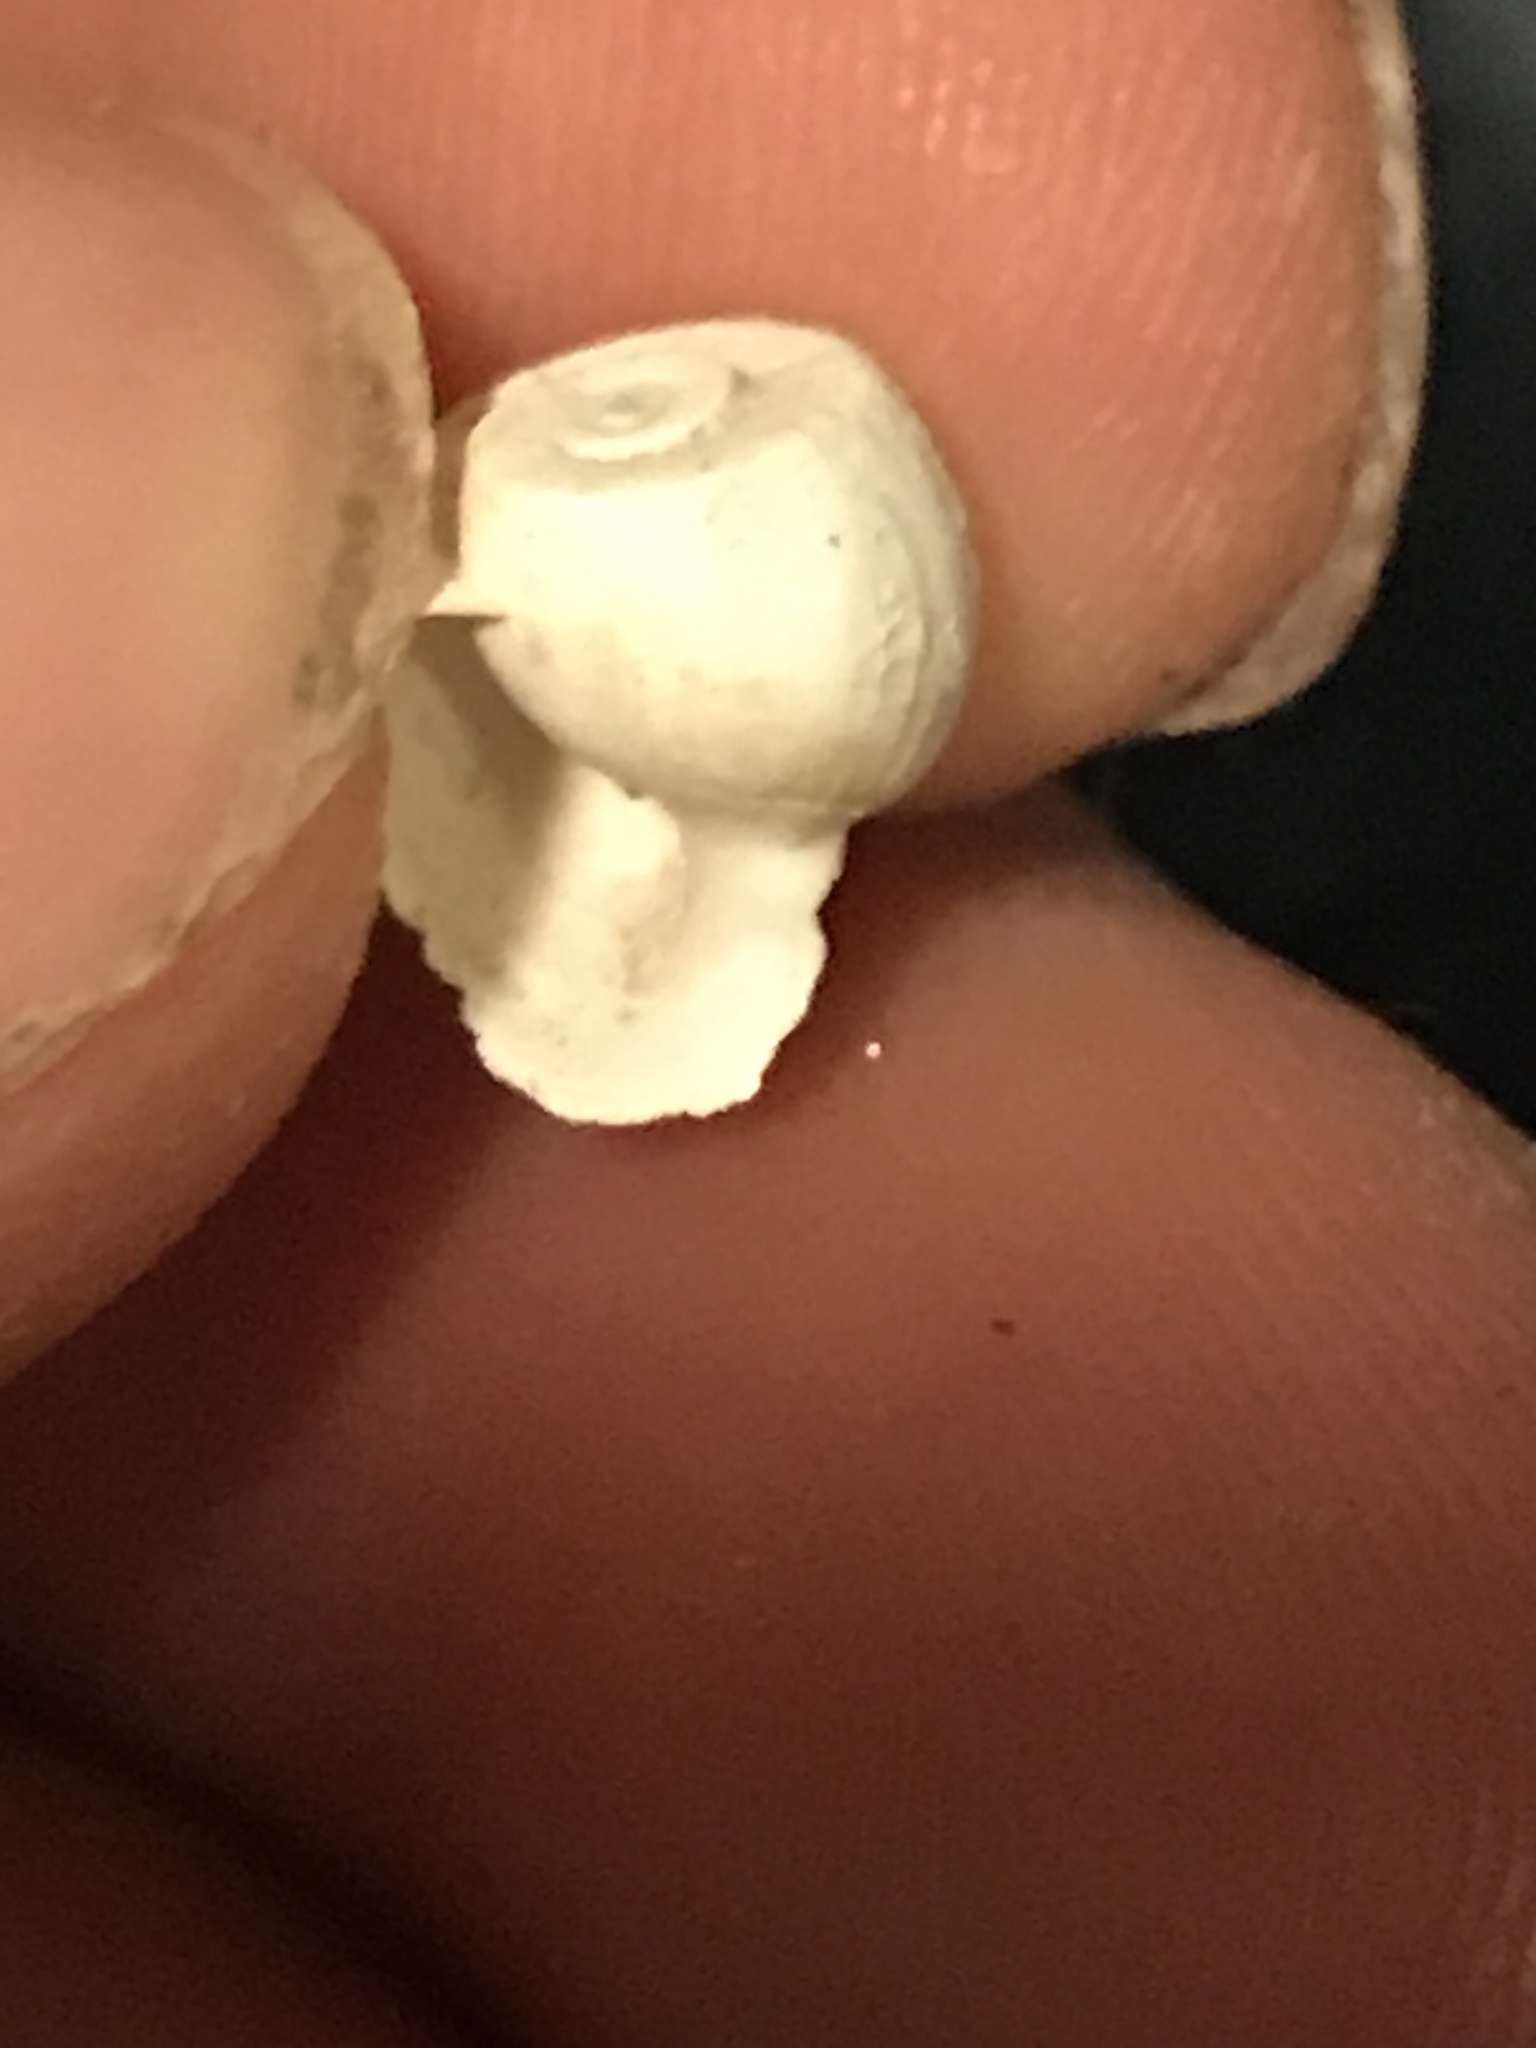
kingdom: Animalia
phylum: Mollusca
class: Gastropoda
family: Planorbidae
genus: Planorbella
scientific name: Planorbella duryi
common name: Seminole rams-horn
